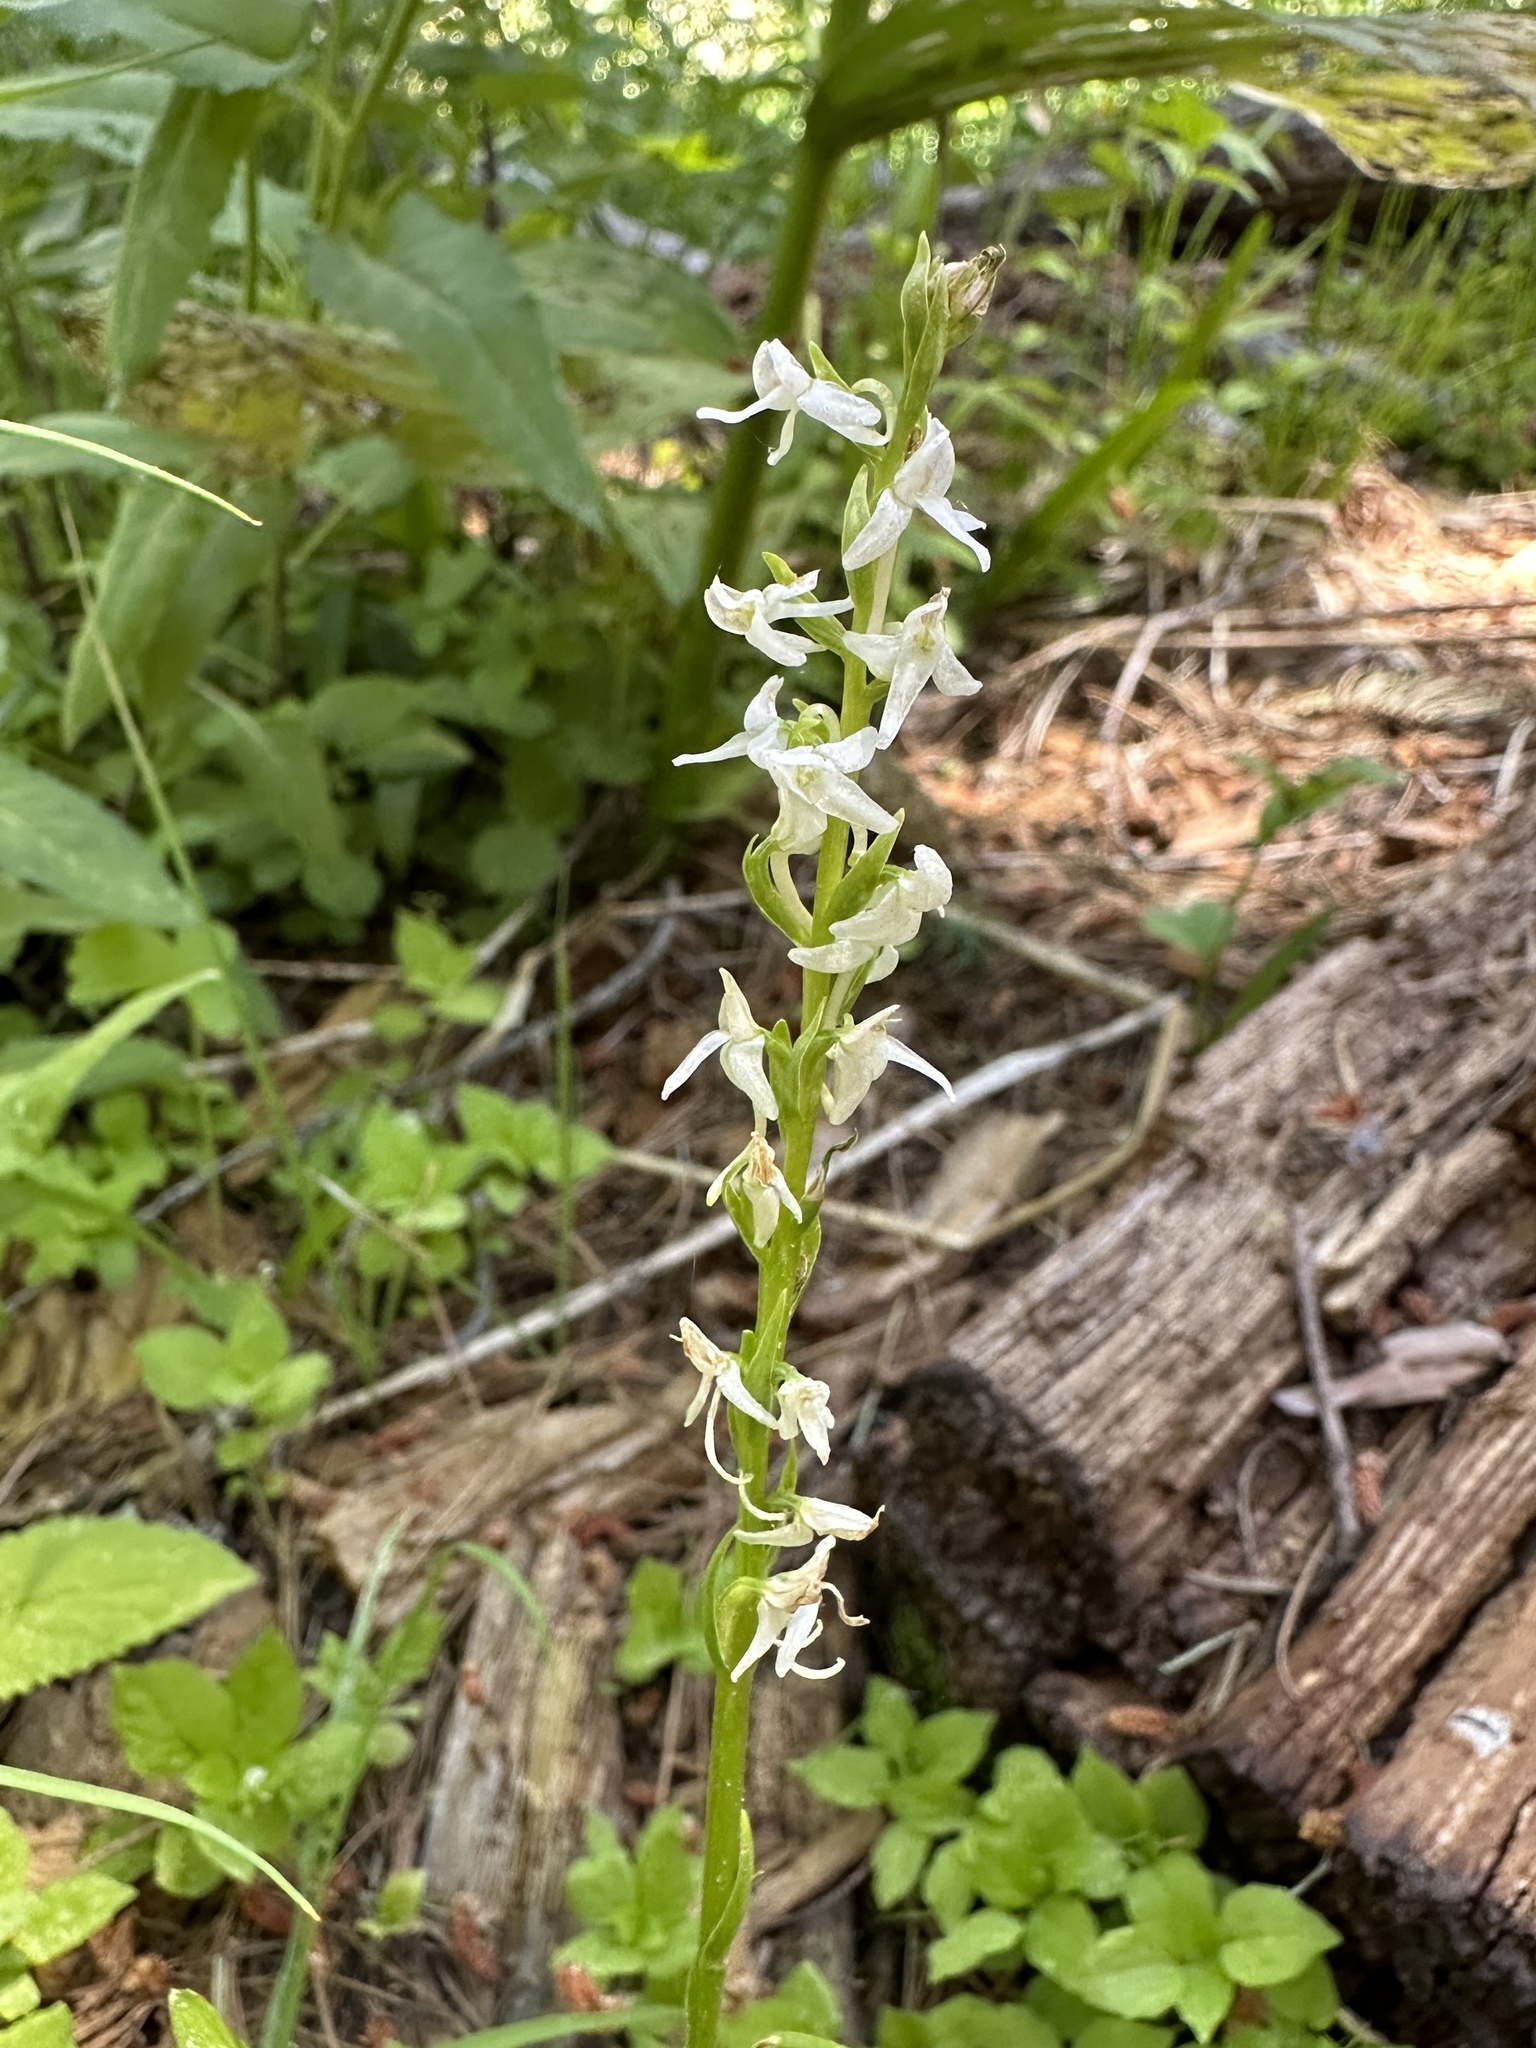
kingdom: Plantae
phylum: Tracheophyta
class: Liliopsida
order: Asparagales
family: Orchidaceae
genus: Platanthera
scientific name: Platanthera dilatata
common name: Bog candles
